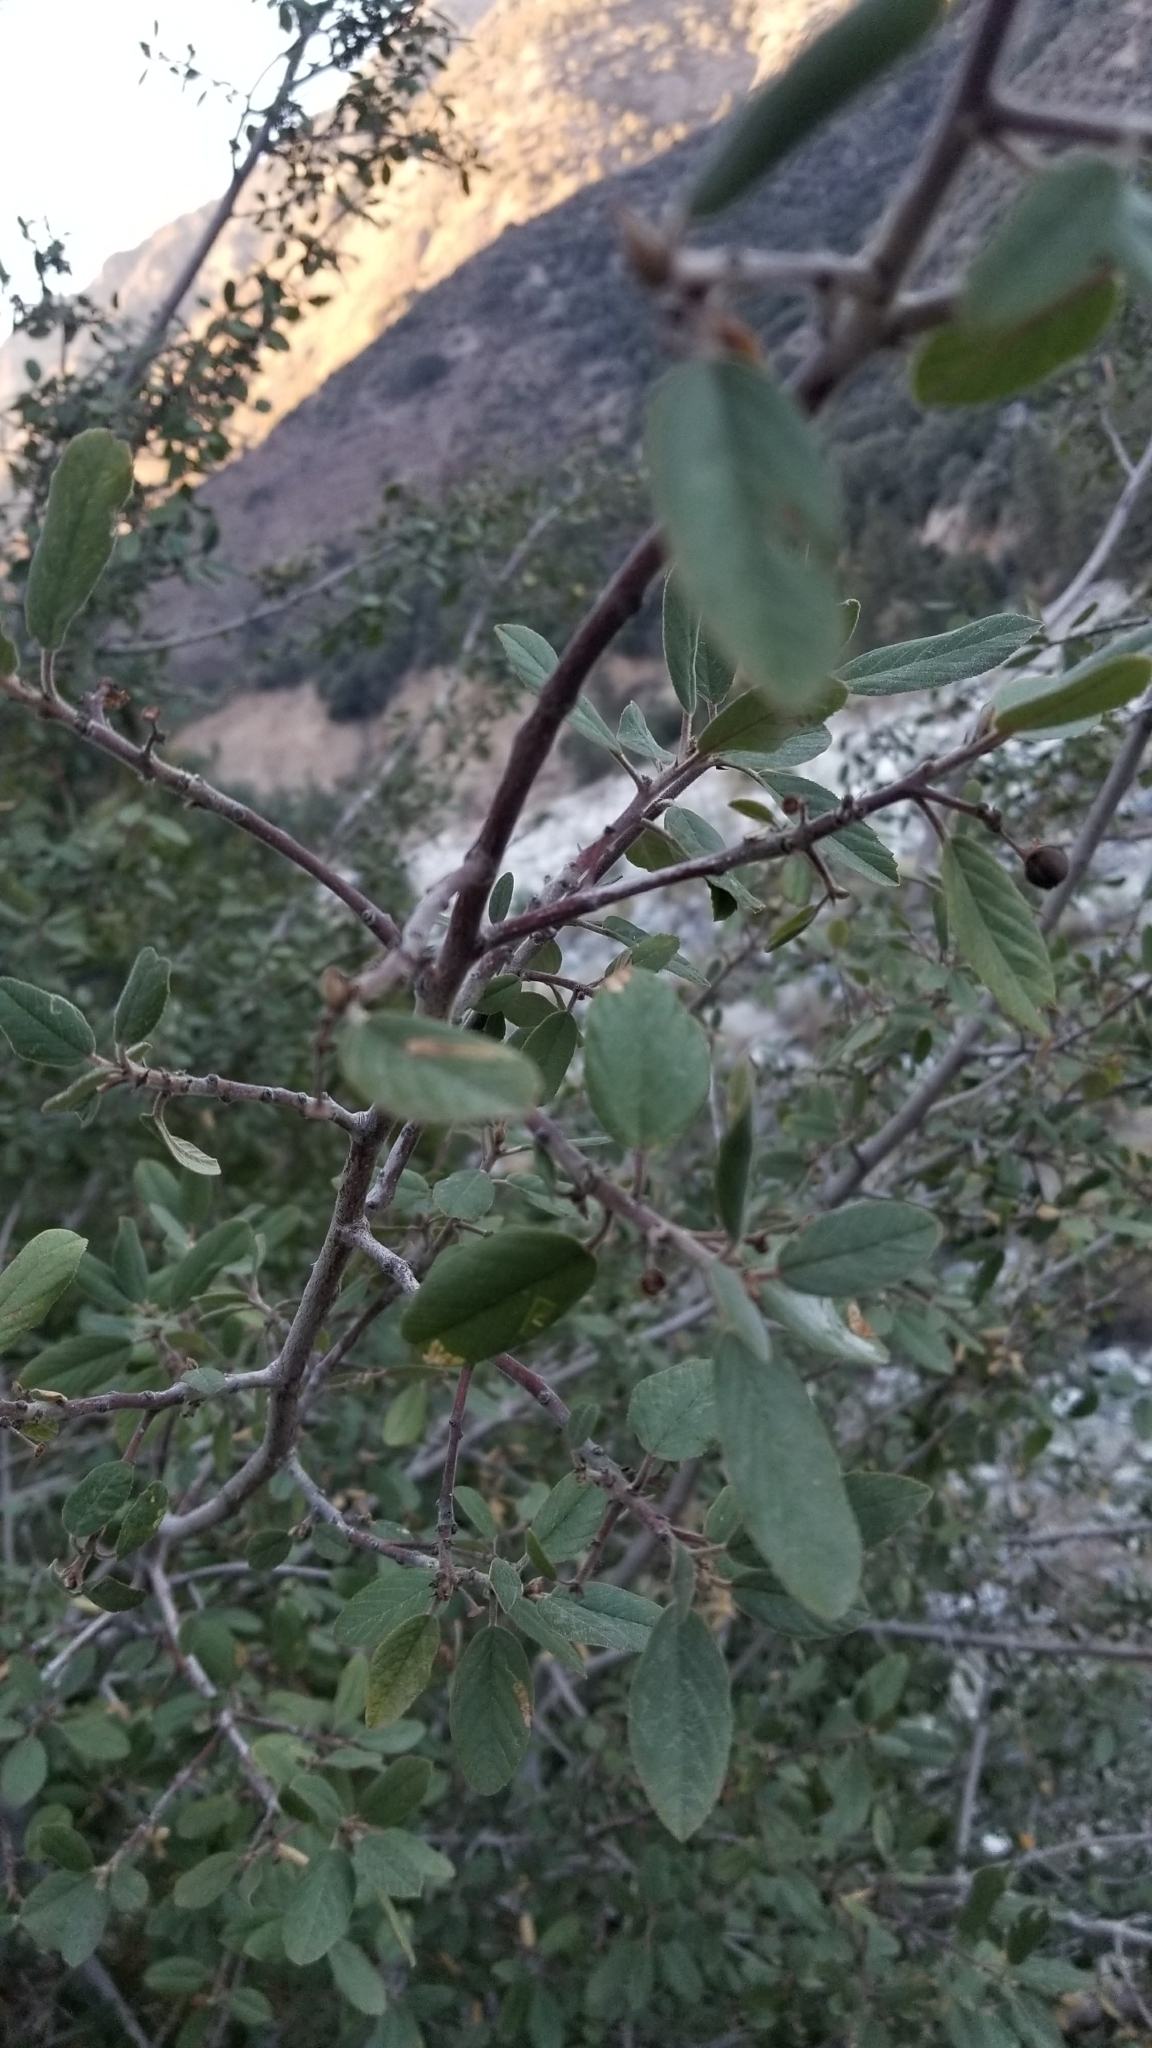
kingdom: Plantae
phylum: Tracheophyta
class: Magnoliopsida
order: Rosales
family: Rhamnaceae
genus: Frangula
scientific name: Frangula californica
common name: California buckthorn
